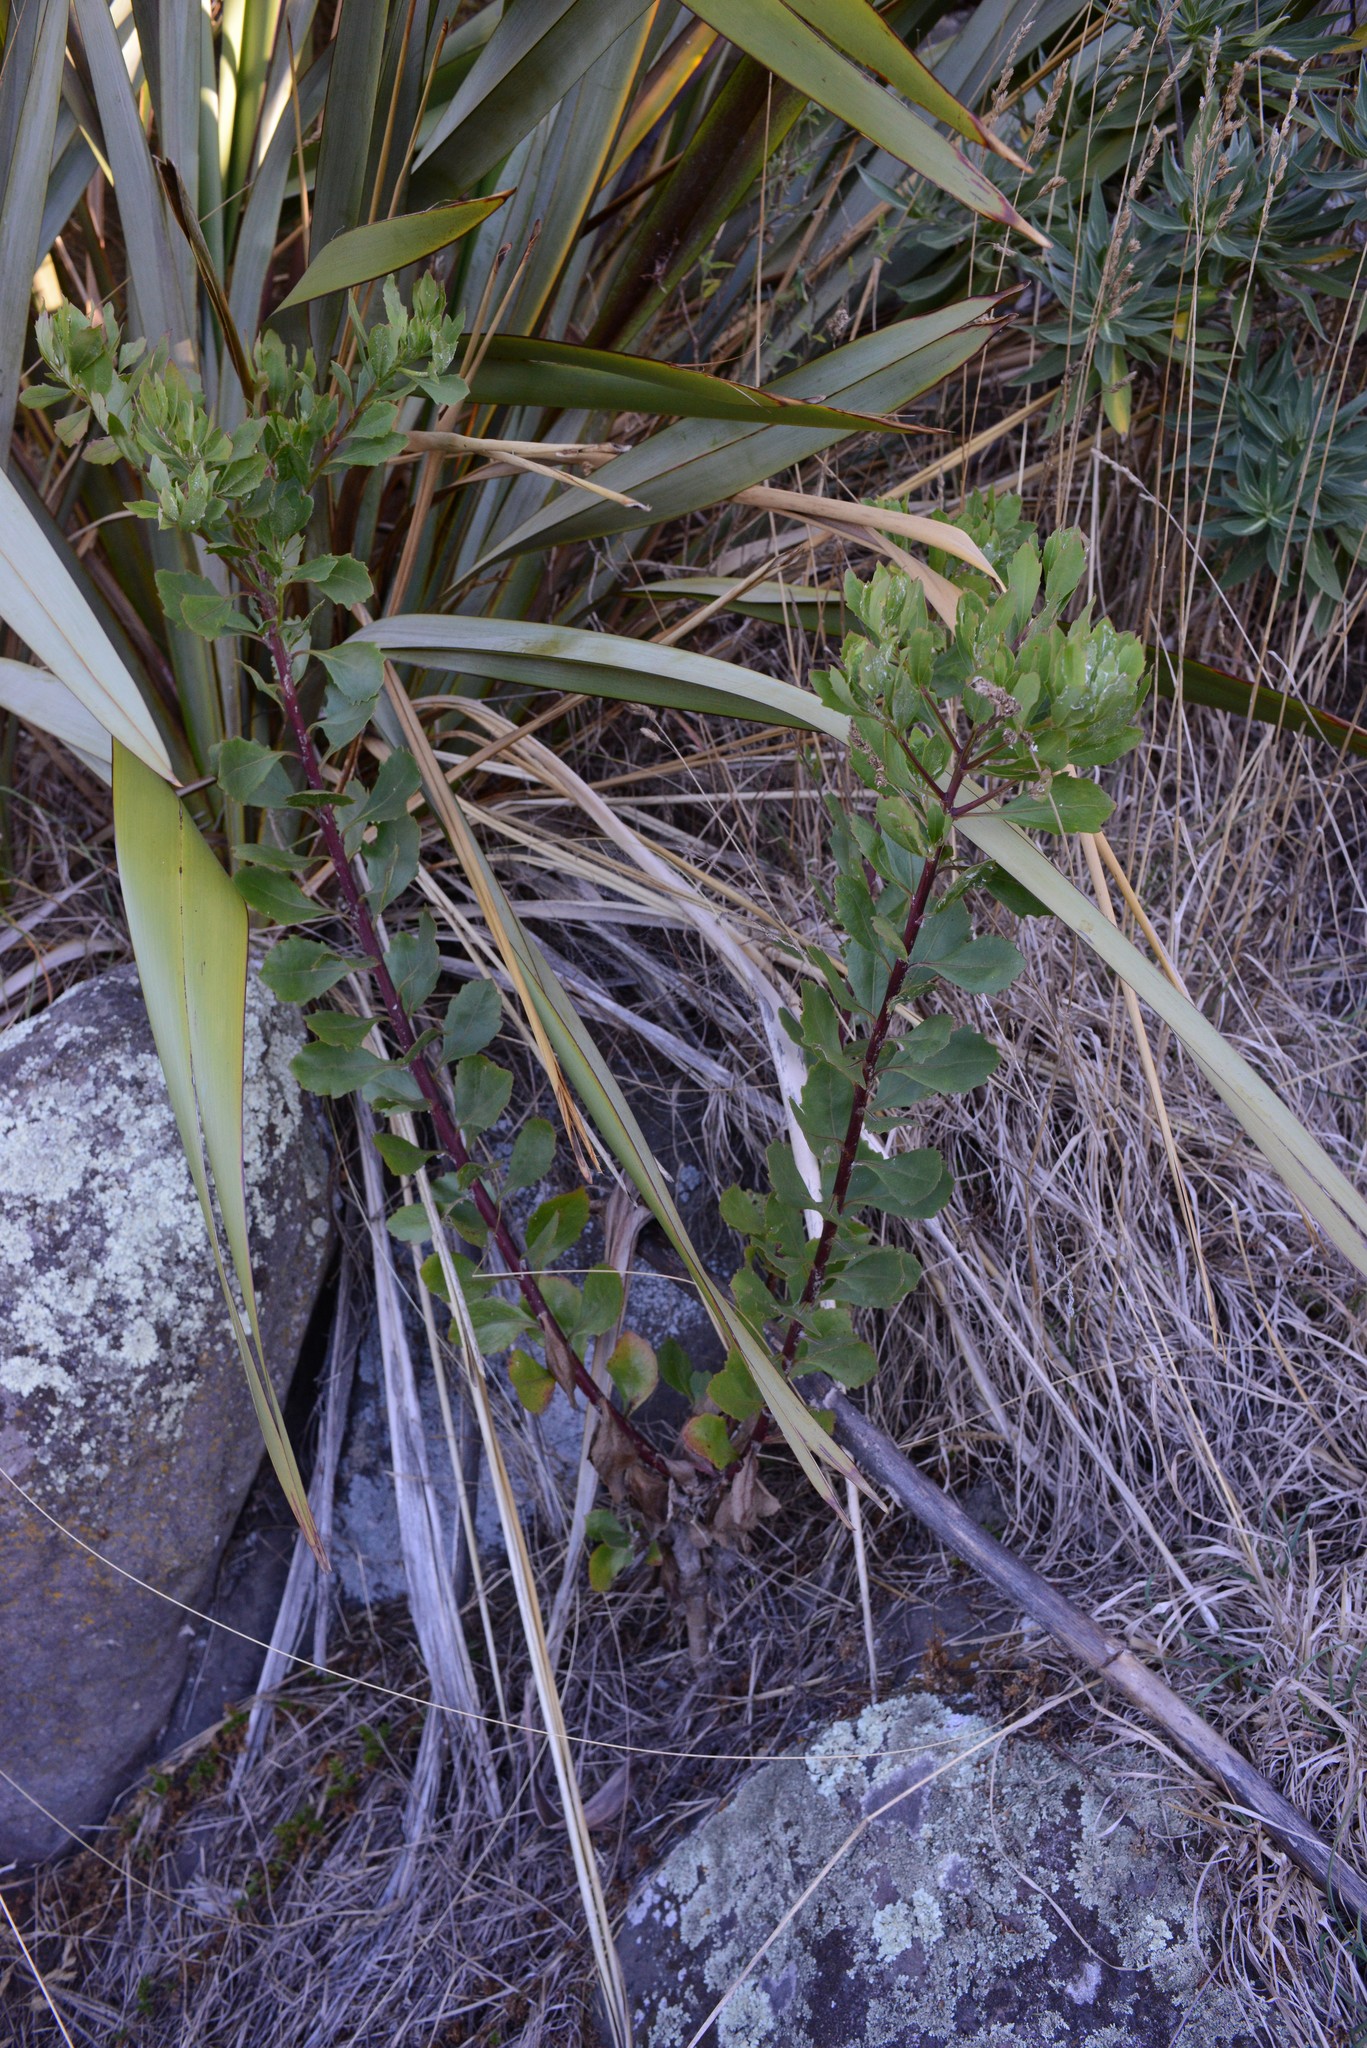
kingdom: Plantae
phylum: Tracheophyta
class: Magnoliopsida
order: Asterales
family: Asteraceae
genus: Osteospermum
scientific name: Osteospermum moniliferum
